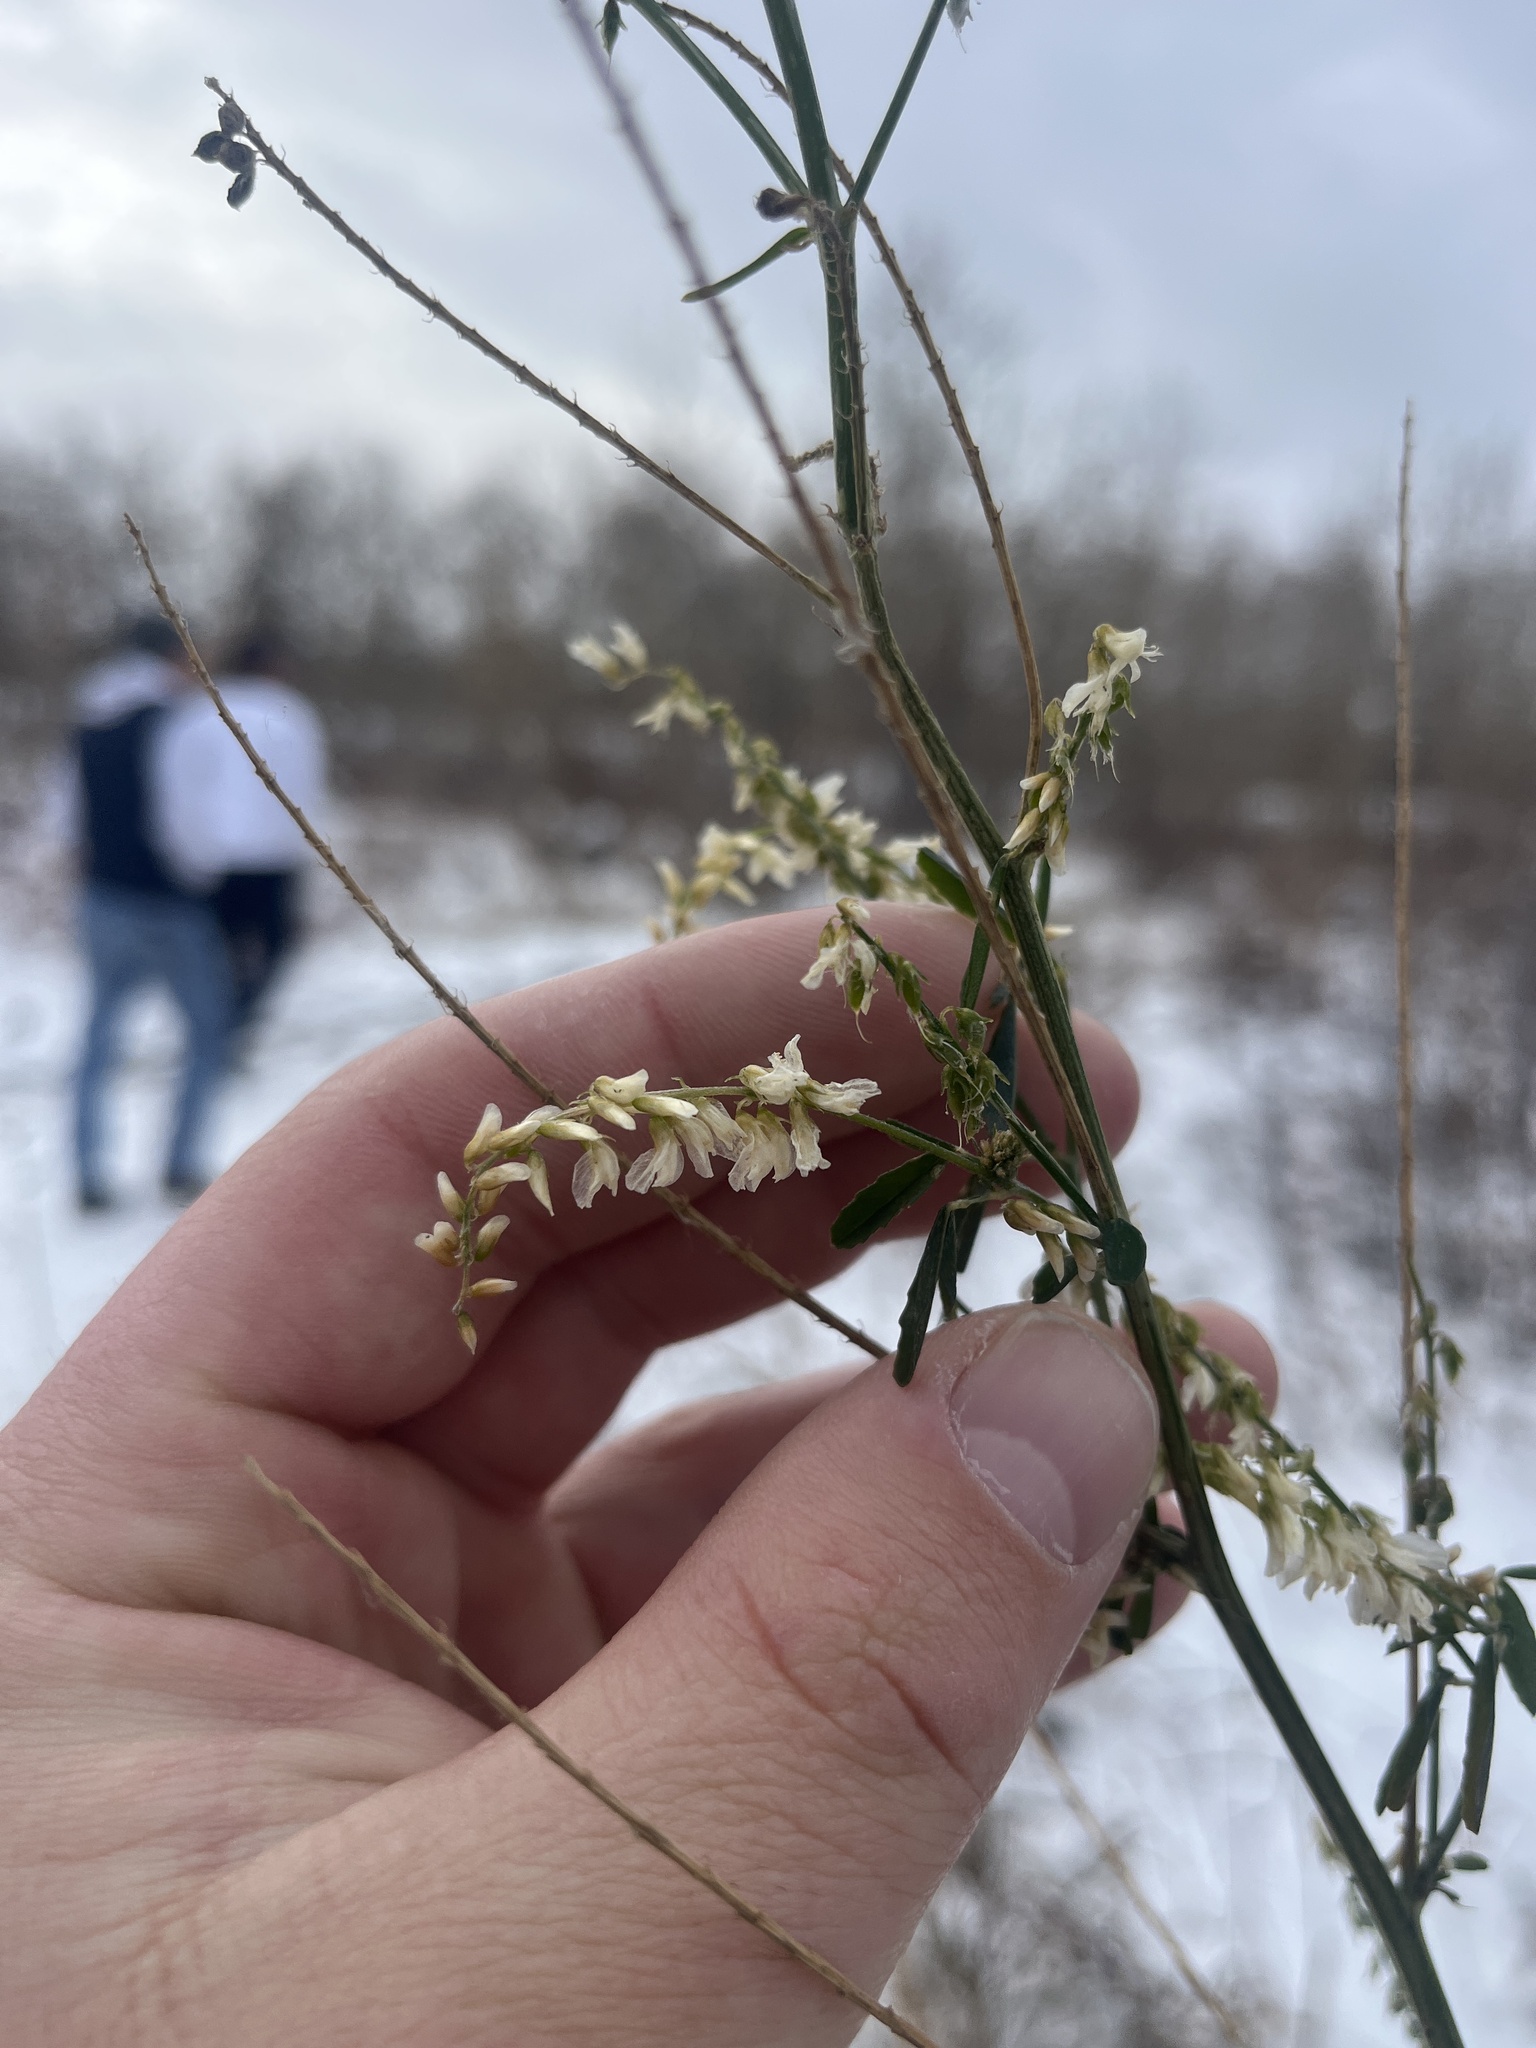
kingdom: Plantae
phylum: Tracheophyta
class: Magnoliopsida
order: Fabales
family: Fabaceae
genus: Melilotus
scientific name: Melilotus albus
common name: White melilot
